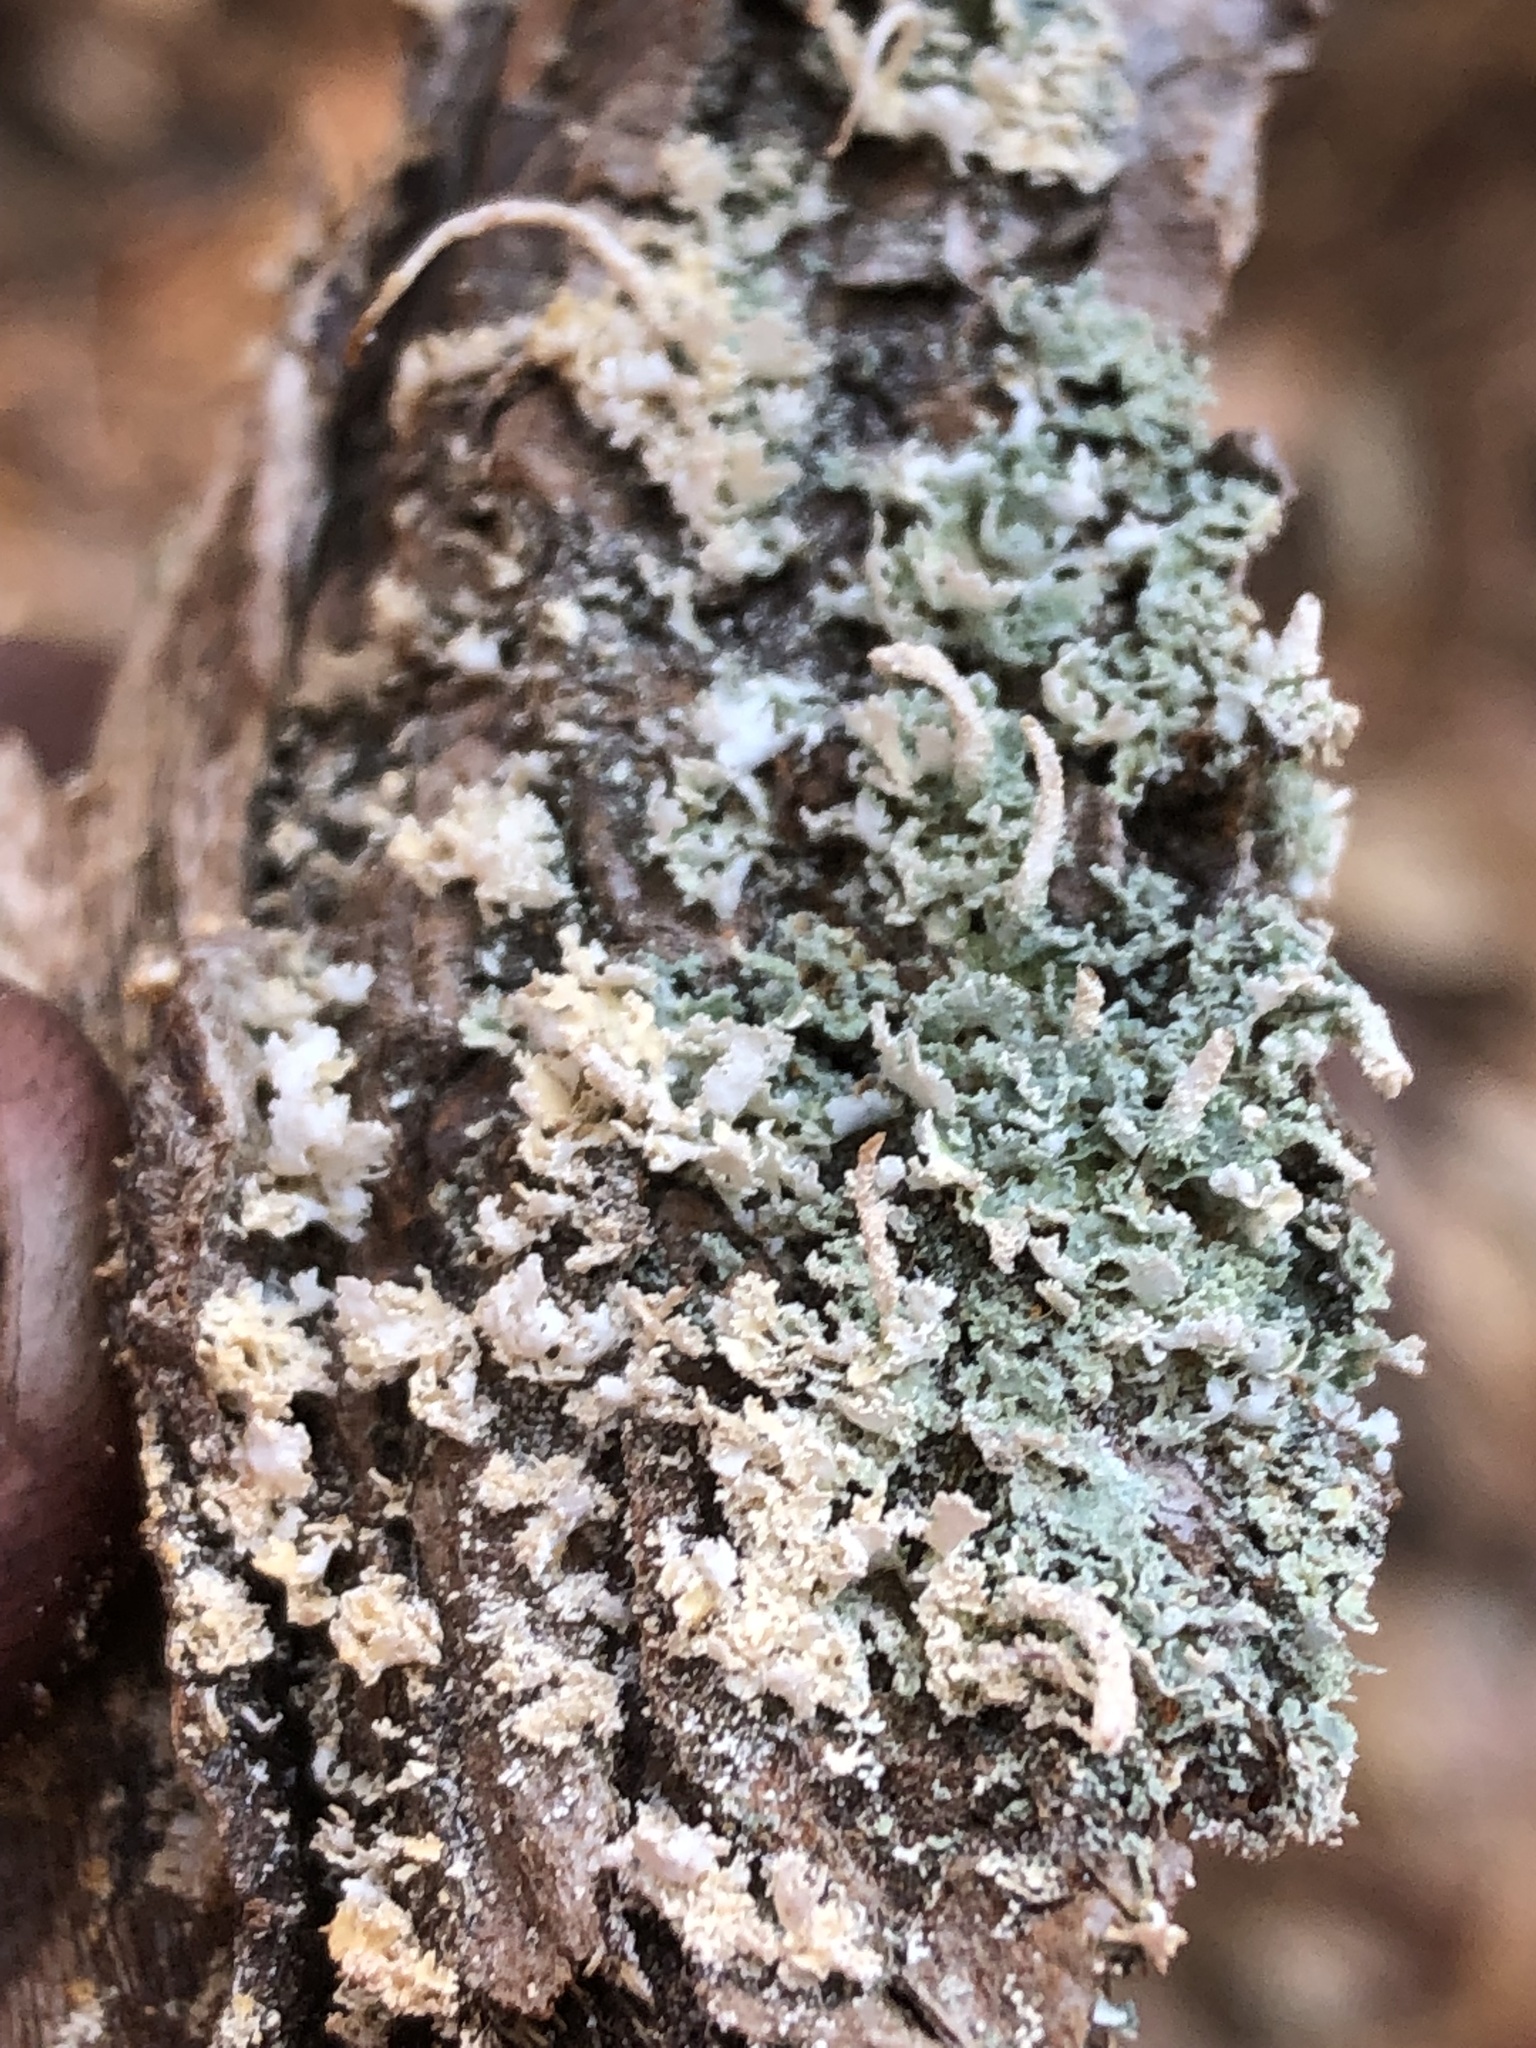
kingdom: Fungi
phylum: Ascomycota
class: Lecanoromycetes
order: Lecanorales
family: Cladoniaceae
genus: Cladonia
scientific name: Cladonia coniocraea
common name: Common powderhorn
